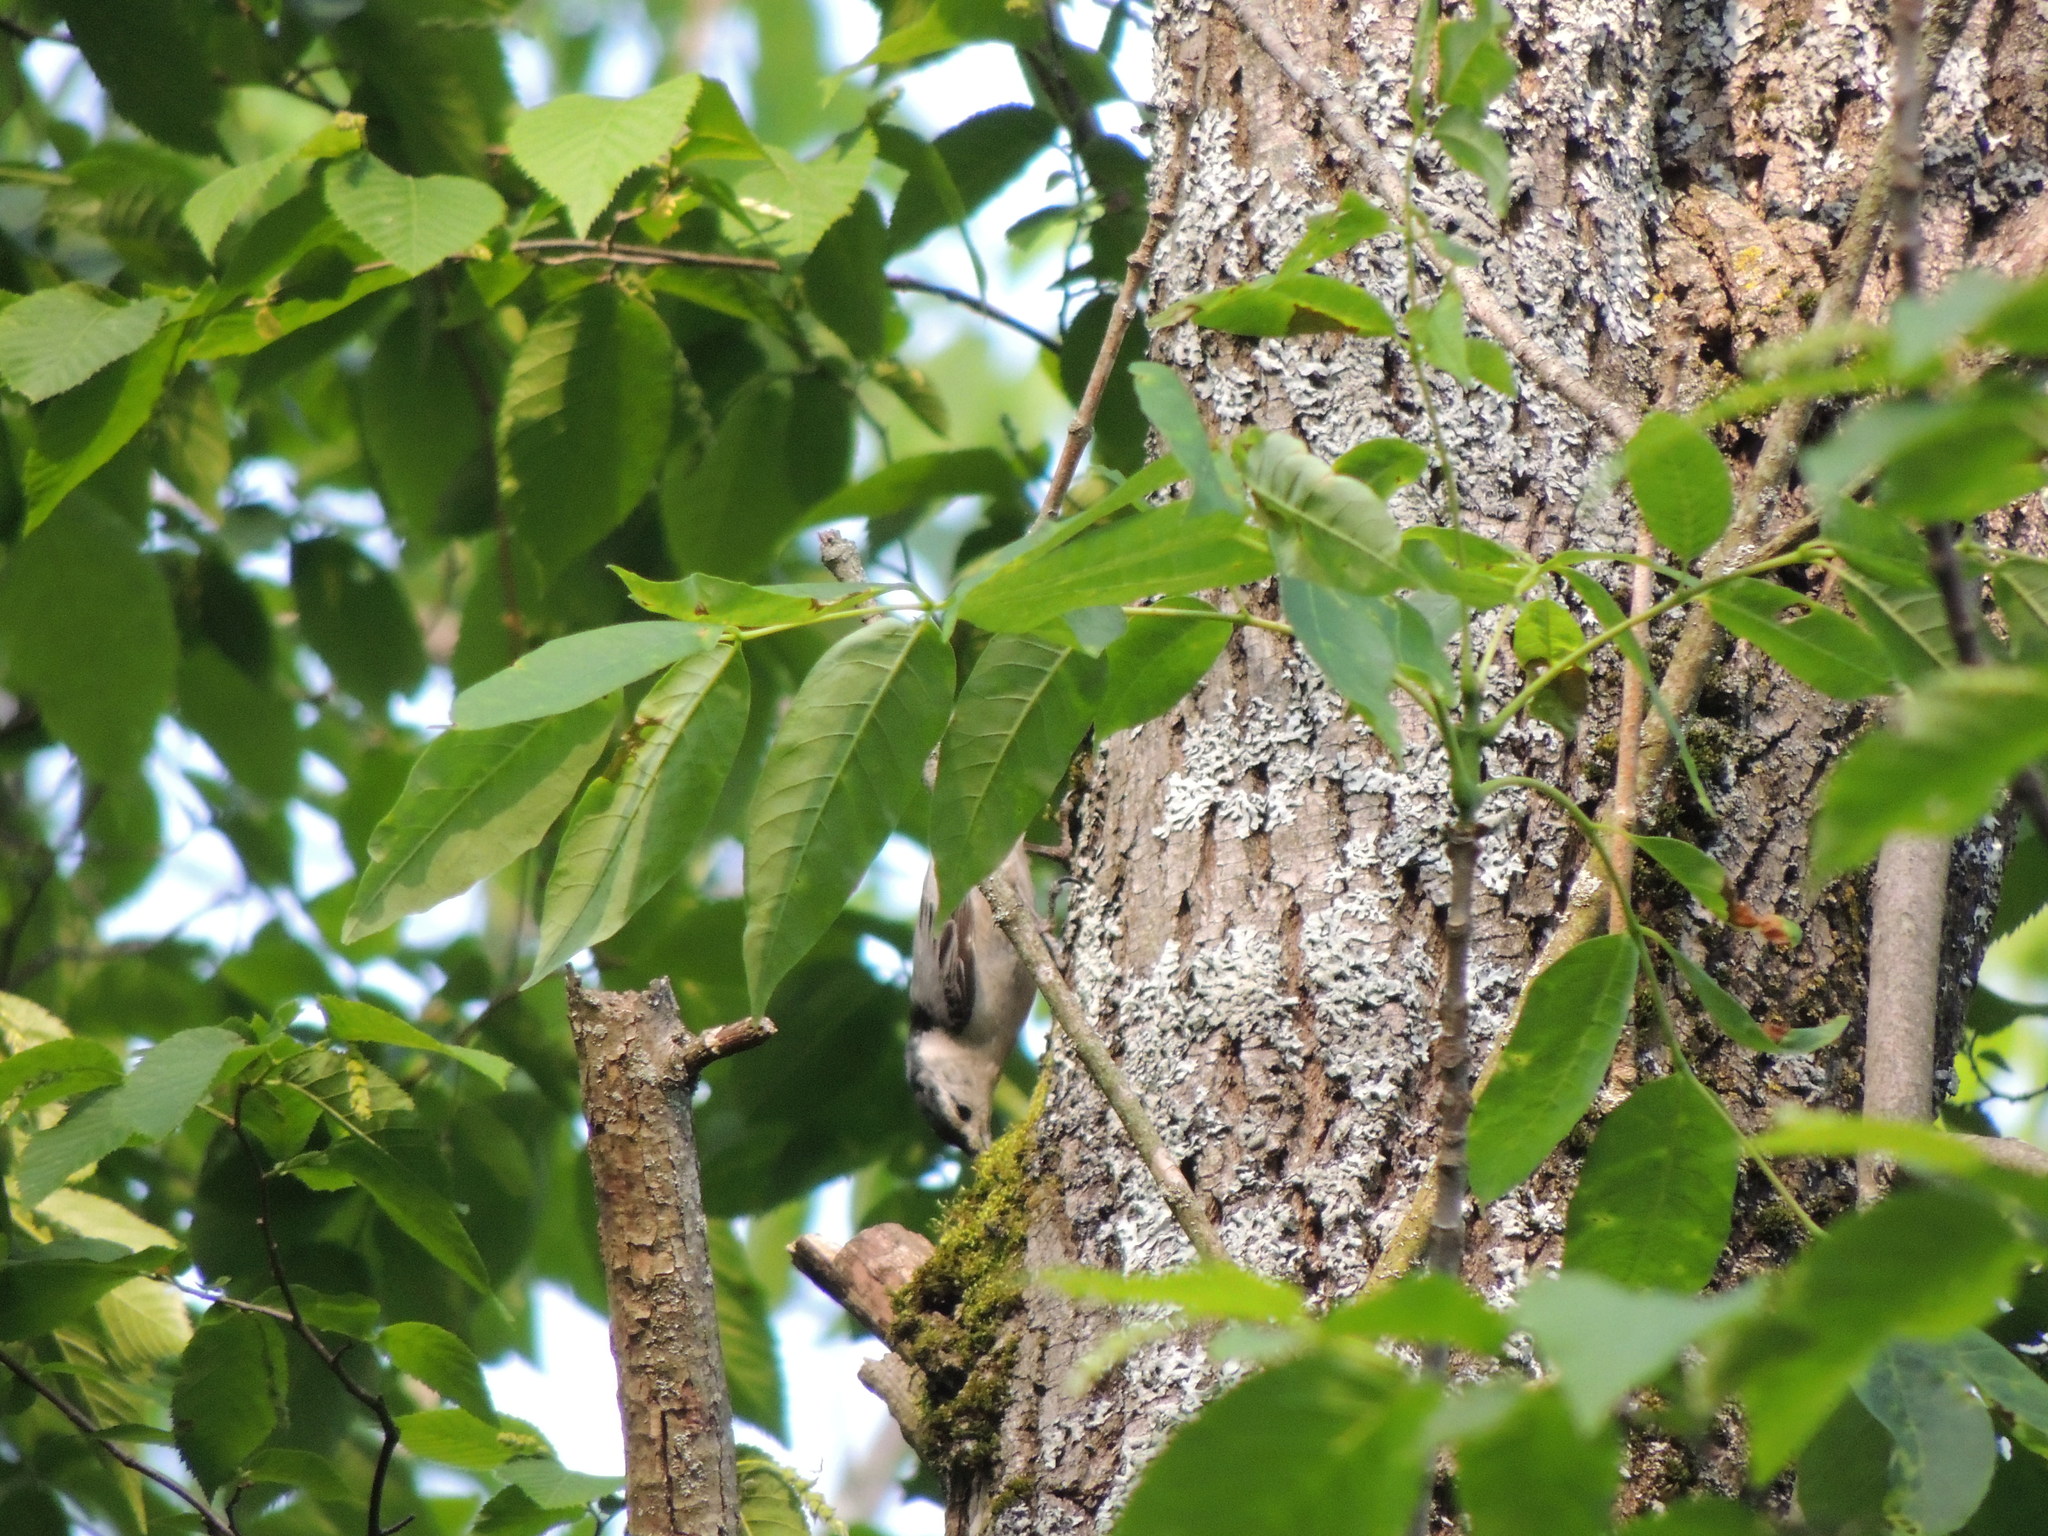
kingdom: Animalia
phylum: Chordata
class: Aves
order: Passeriformes
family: Sittidae
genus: Sitta
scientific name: Sitta carolinensis
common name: White-breasted nuthatch
